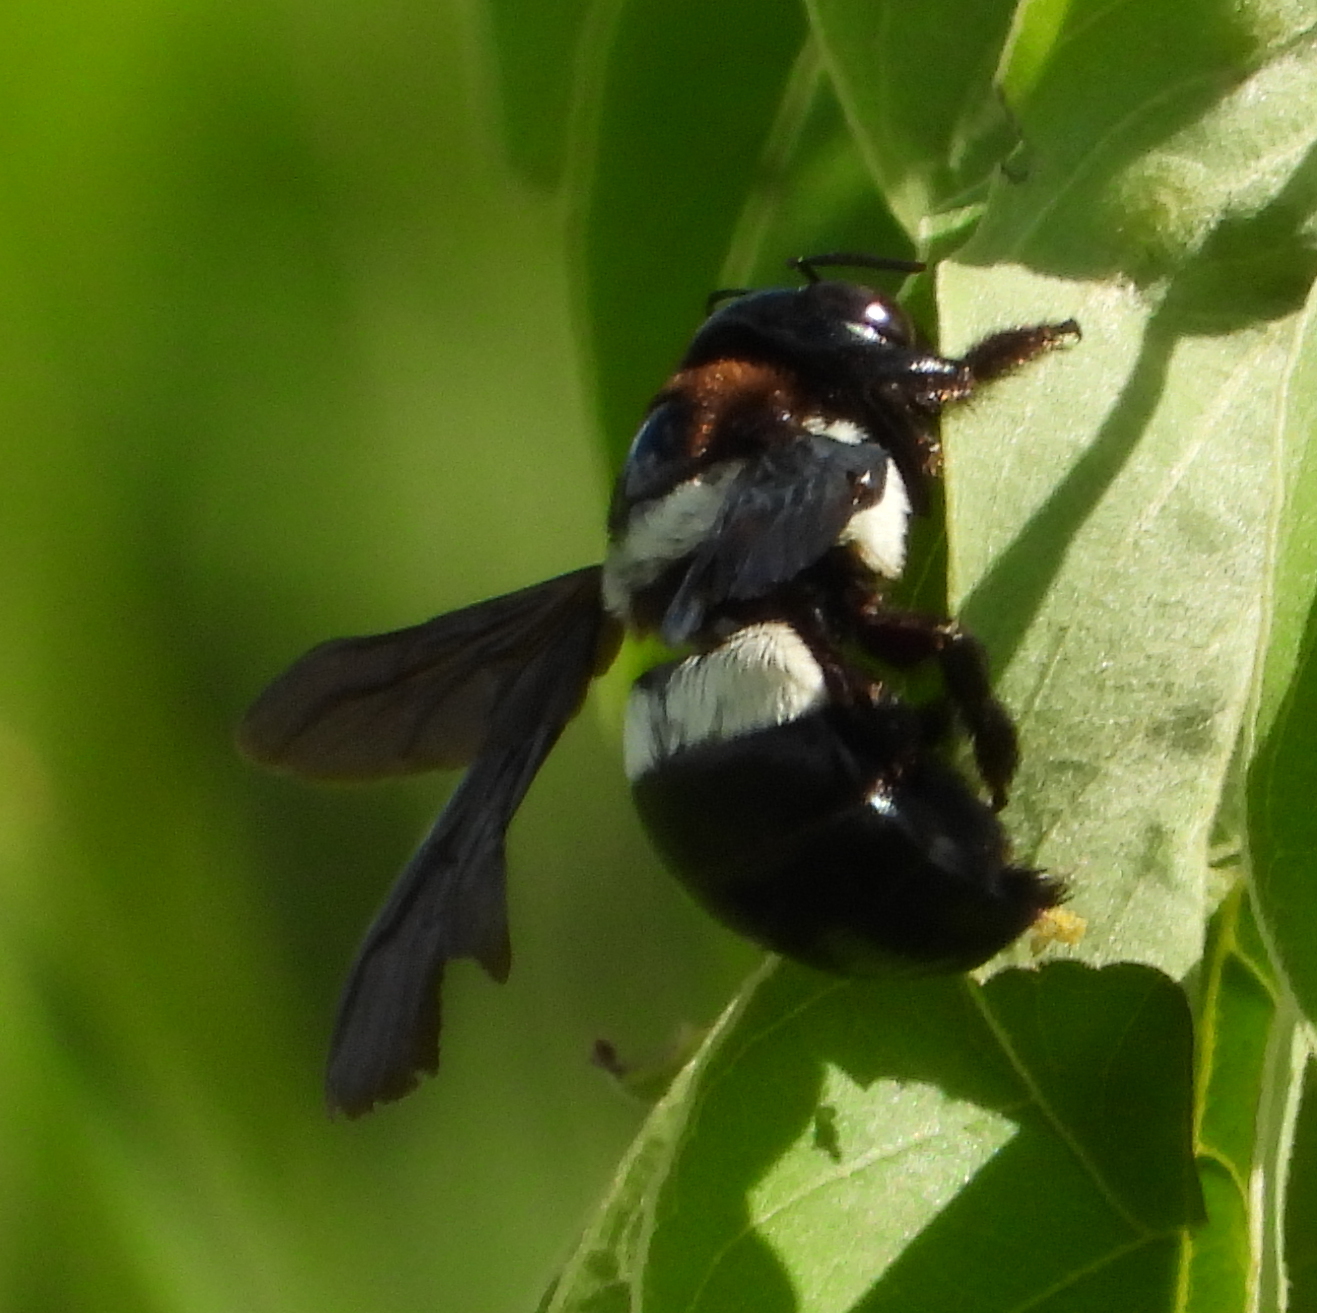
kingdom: Animalia
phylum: Arthropoda
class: Insecta
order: Hymenoptera
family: Apidae
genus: Xylocopa
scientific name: Xylocopa inconstans
